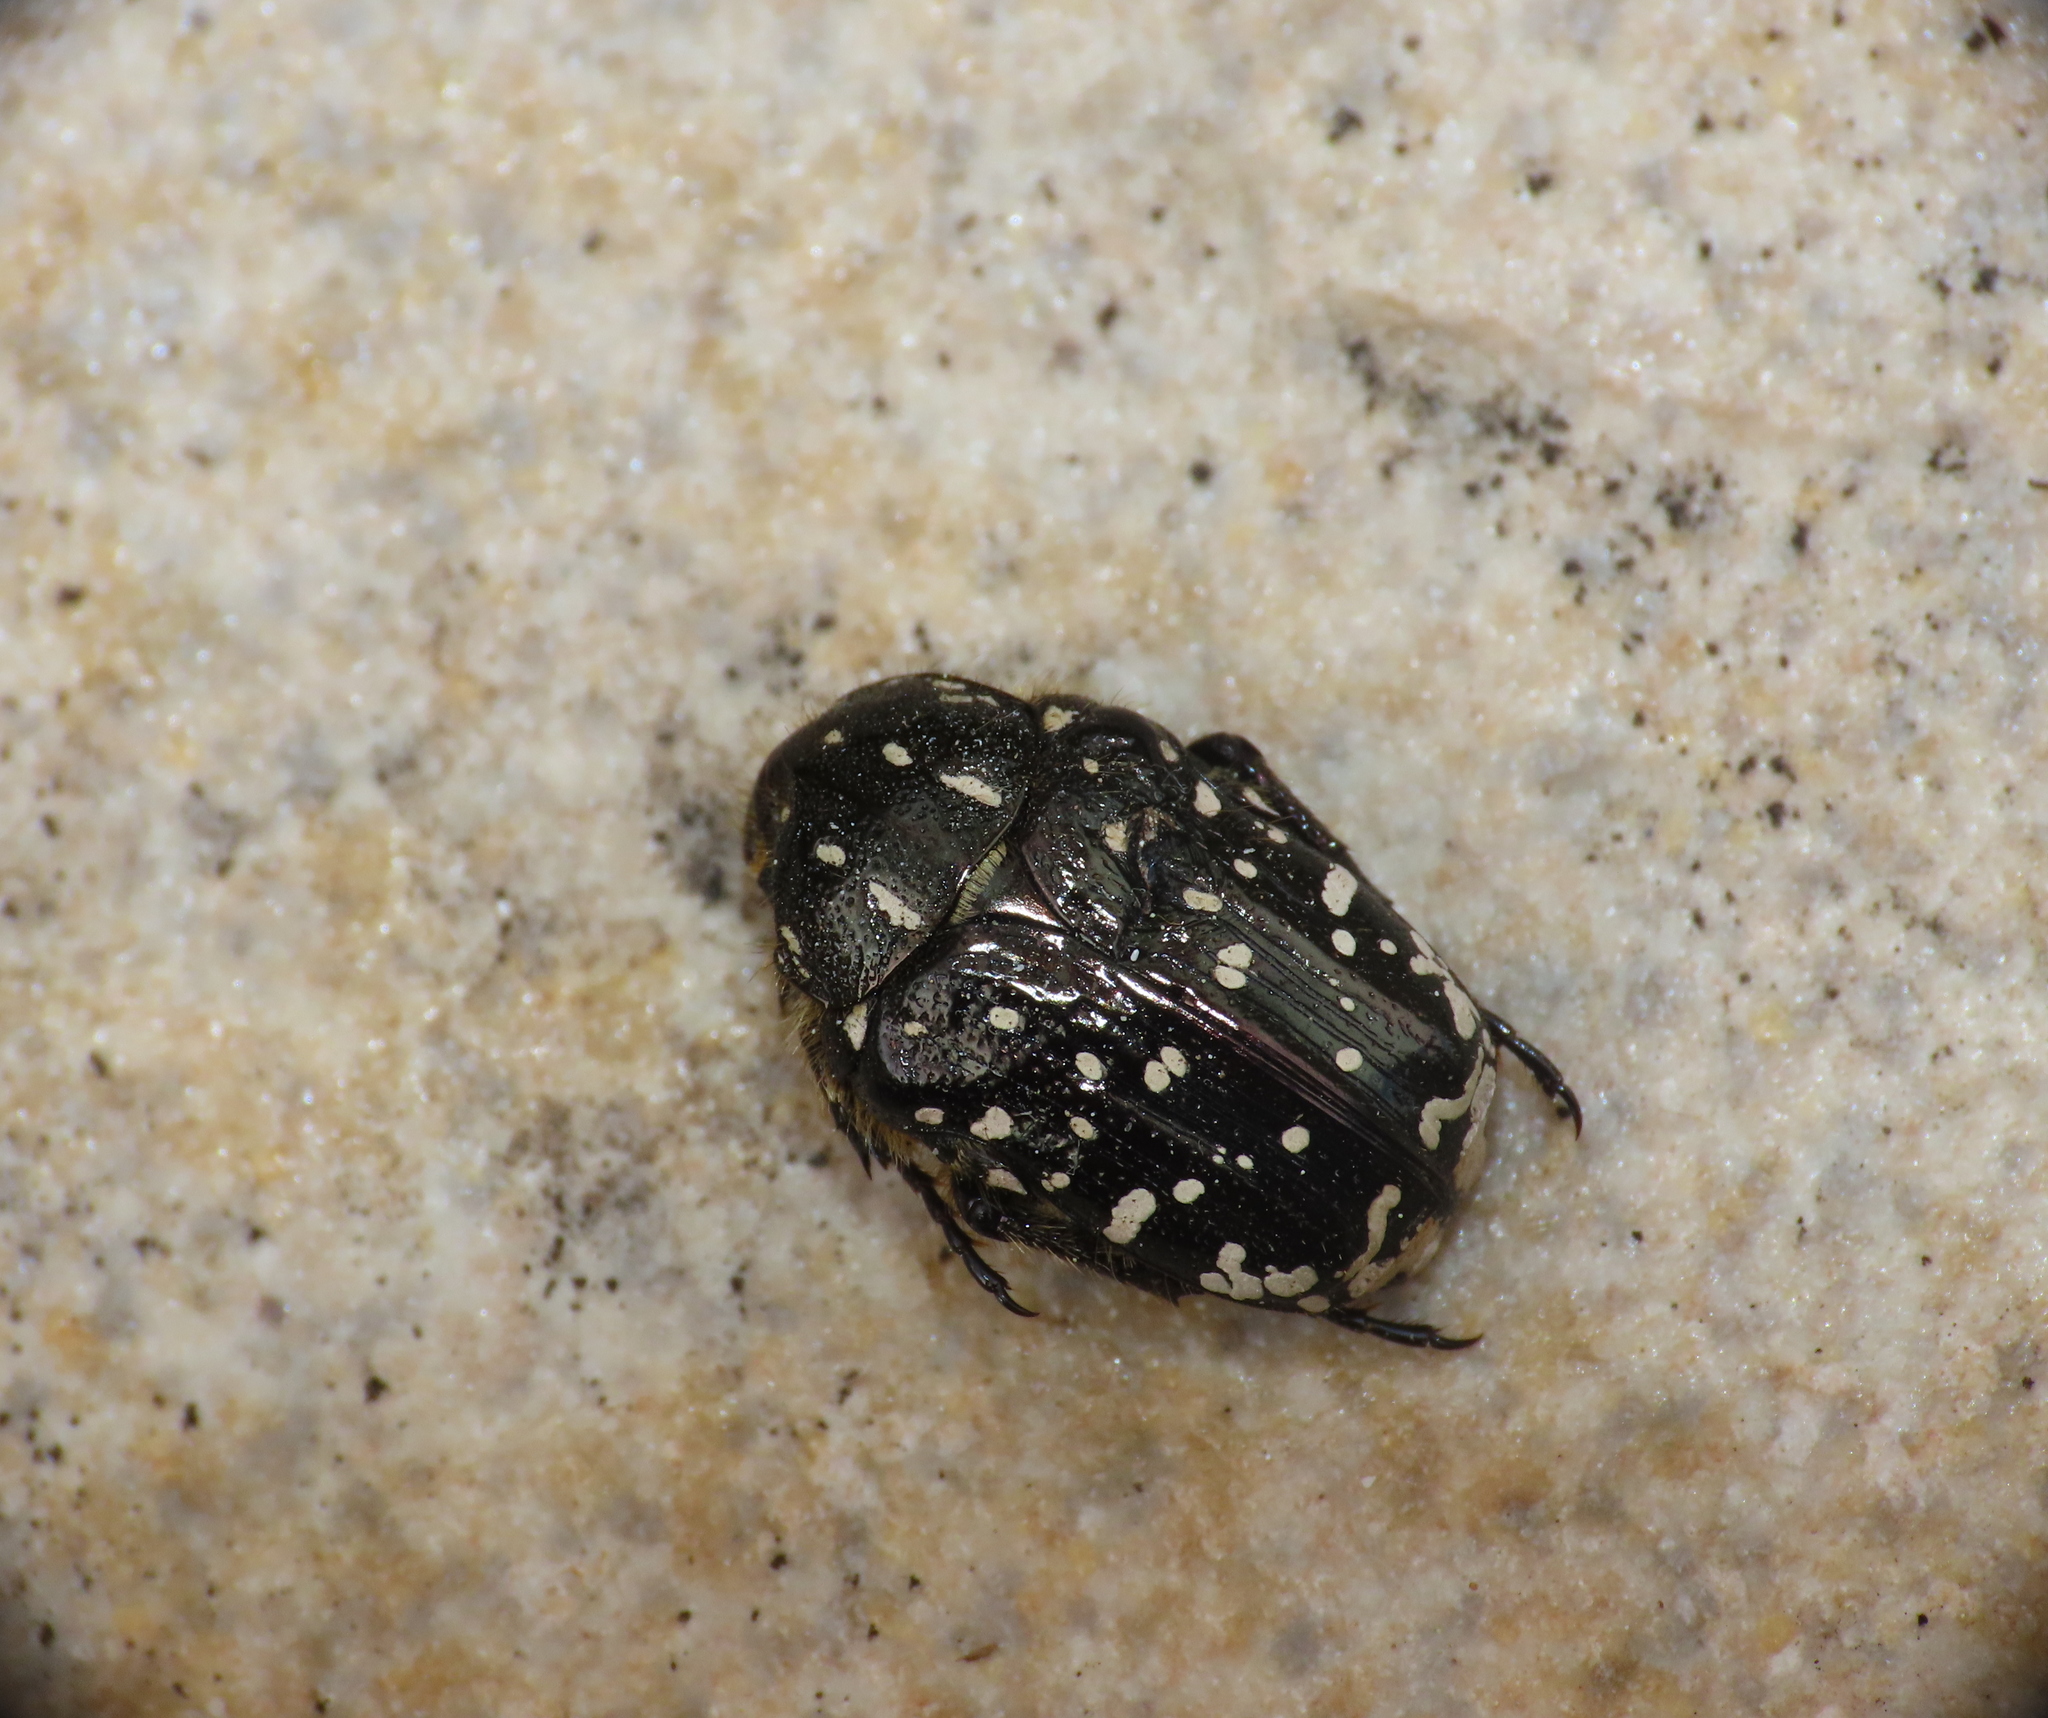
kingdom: Animalia
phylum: Arthropoda
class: Insecta
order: Coleoptera
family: Scarabaeidae
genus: Oxythyrea
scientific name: Oxythyrea funesta
